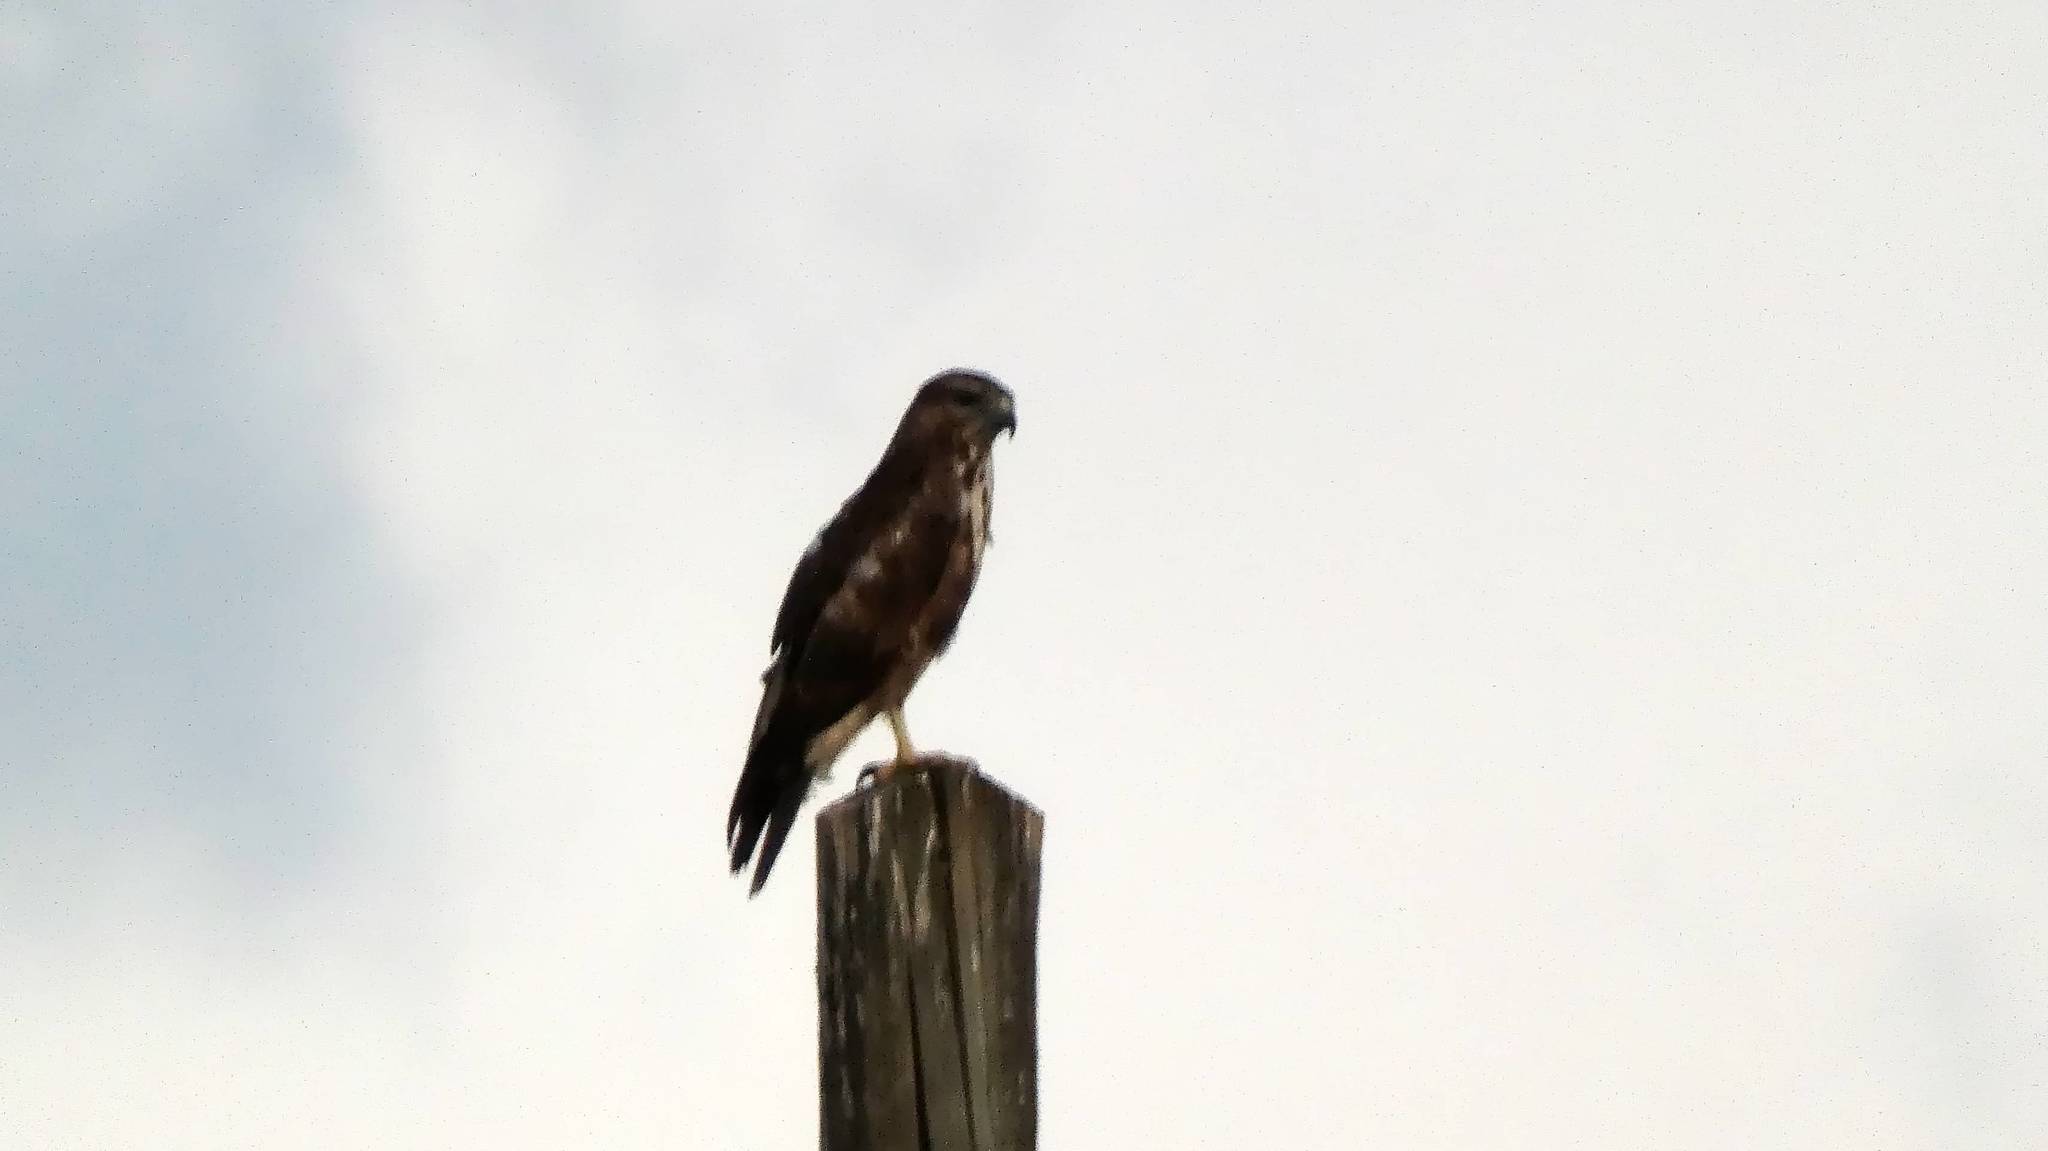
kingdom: Animalia
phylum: Chordata
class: Aves
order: Accipitriformes
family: Accipitridae
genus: Buteo
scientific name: Buteo buteo
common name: Common buzzard
